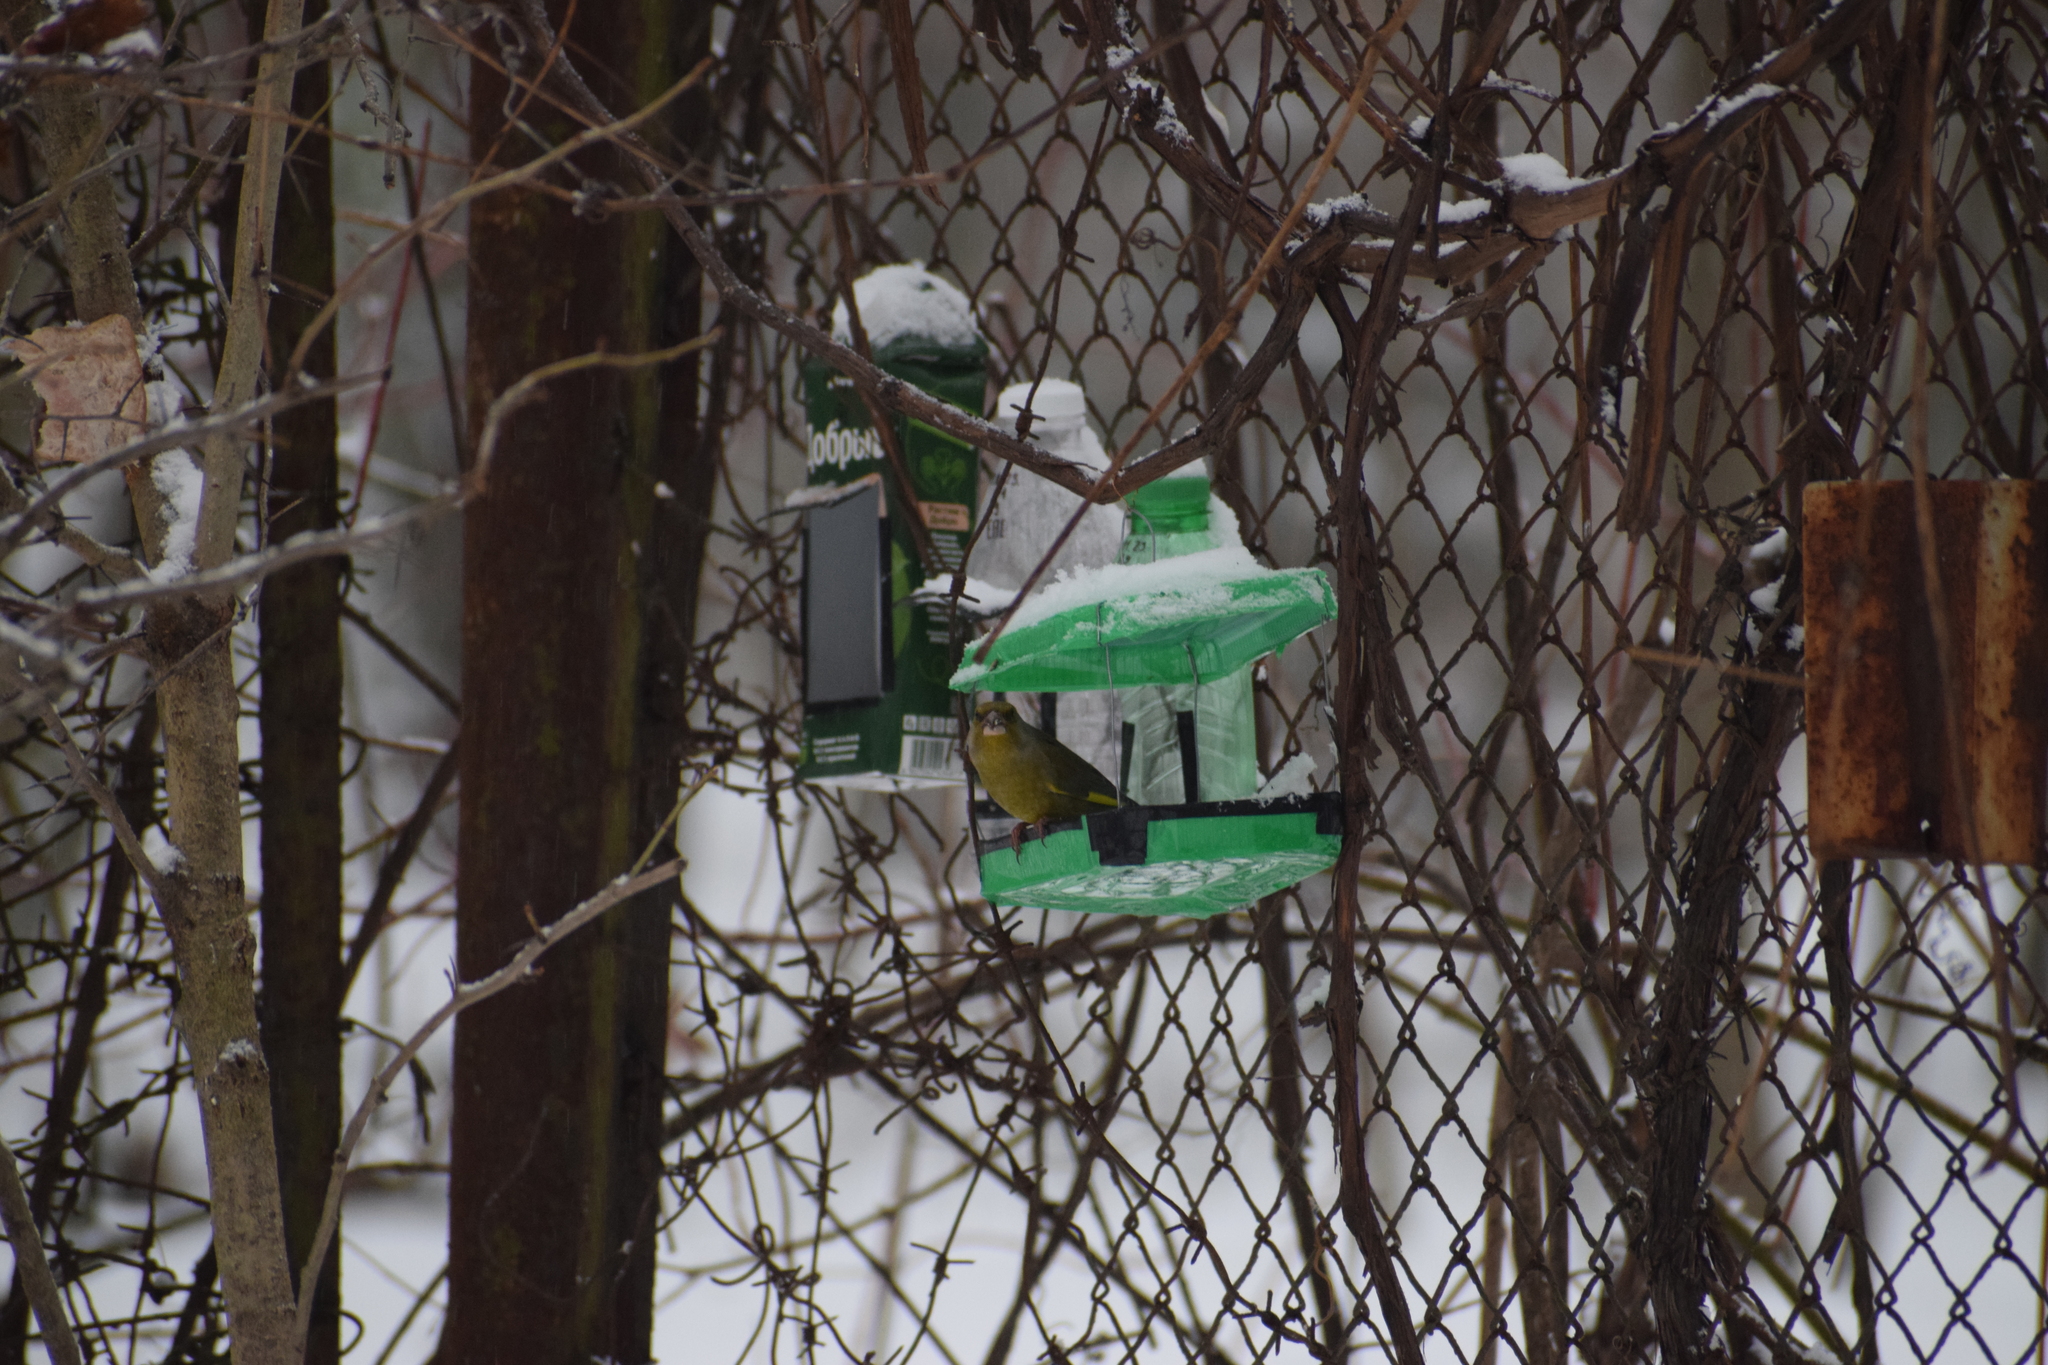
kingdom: Plantae
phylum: Tracheophyta
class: Liliopsida
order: Poales
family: Poaceae
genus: Chloris
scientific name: Chloris chloris
